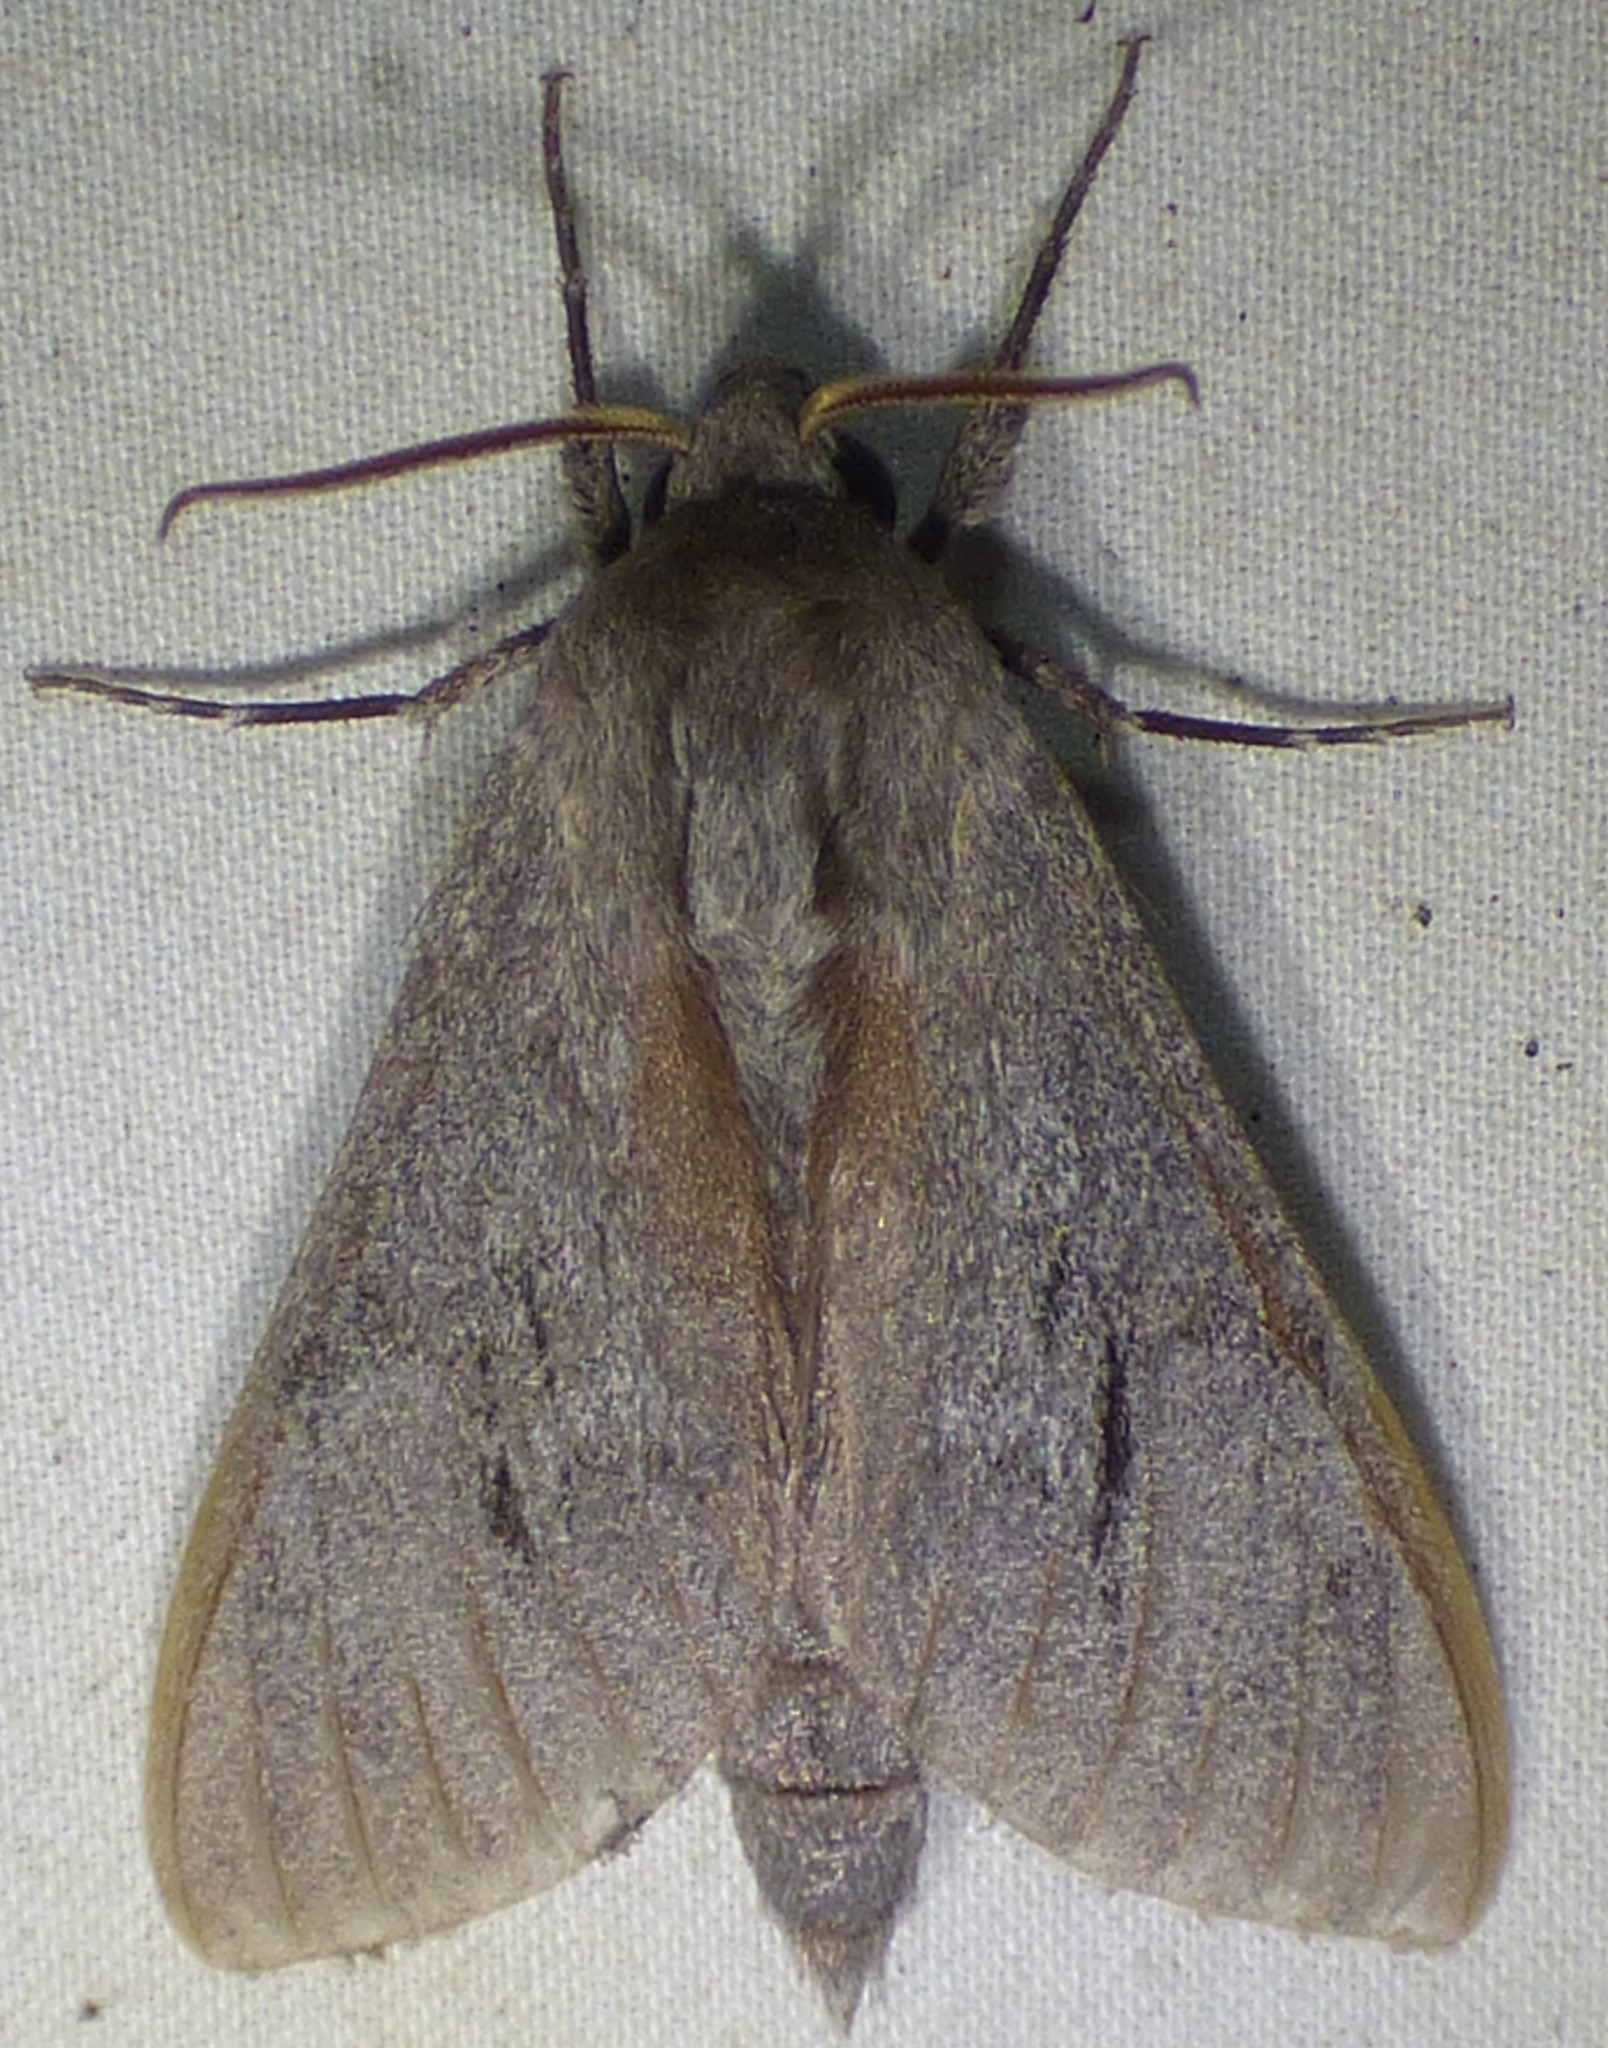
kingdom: Animalia
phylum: Arthropoda
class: Insecta
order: Lepidoptera
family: Sphingidae
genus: Lapara
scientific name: Lapara coniferarum
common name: Southern pine sphinx
